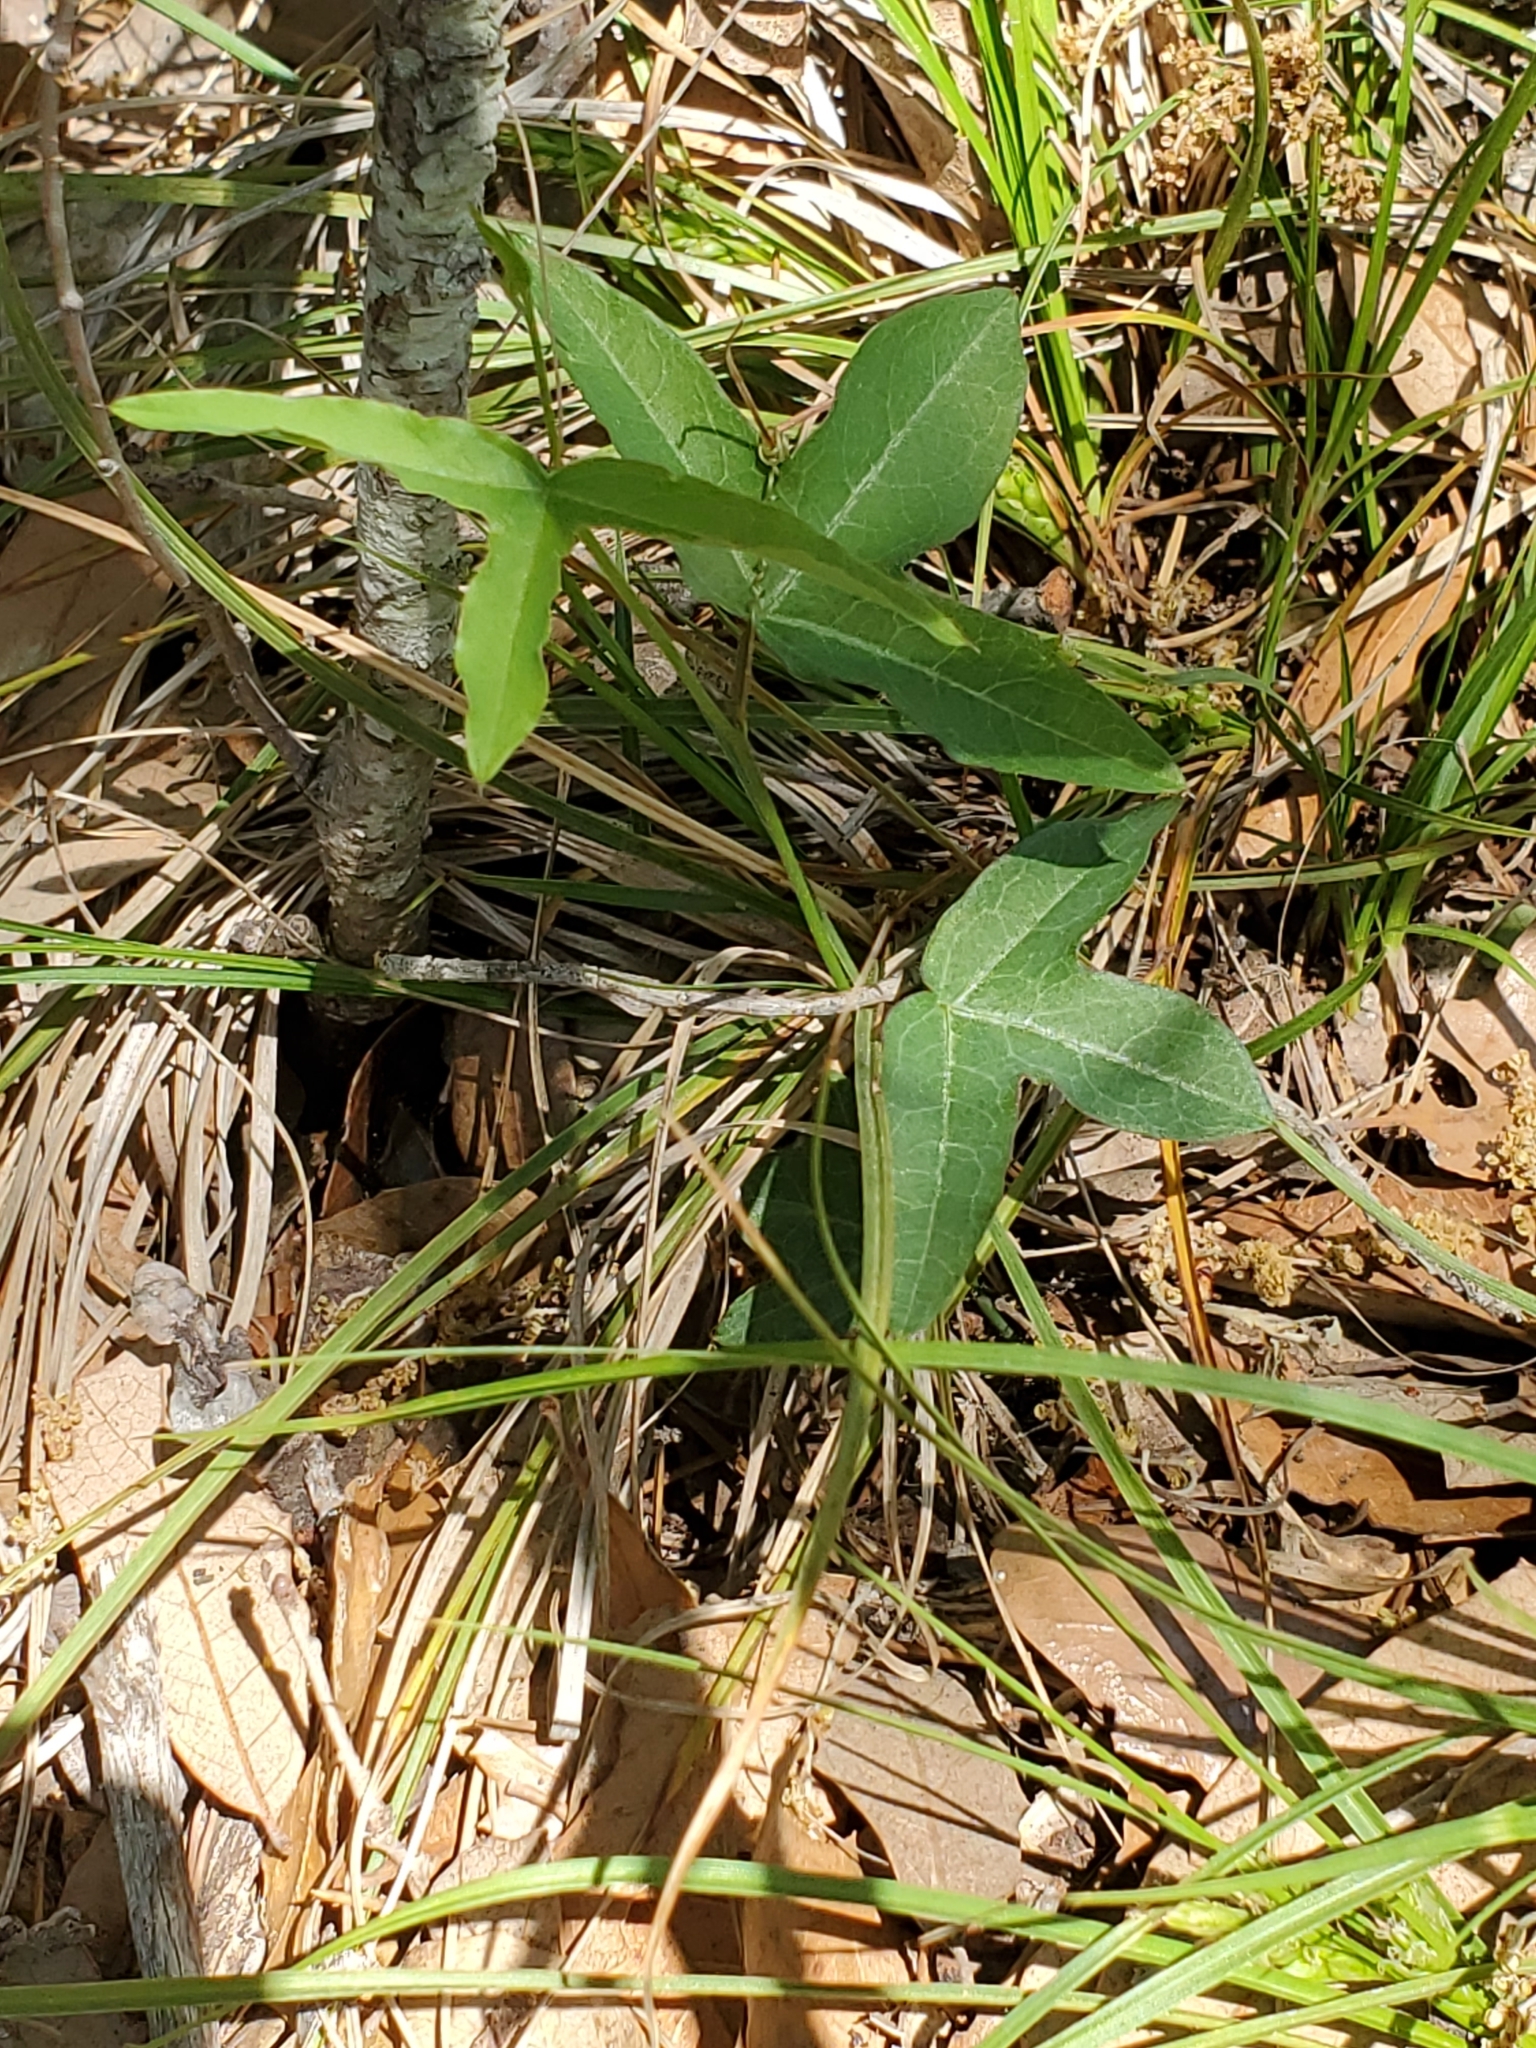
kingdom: Plantae
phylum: Tracheophyta
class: Magnoliopsida
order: Malpighiales
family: Passifloraceae
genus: Passiflora
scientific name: Passiflora tenuiloba
